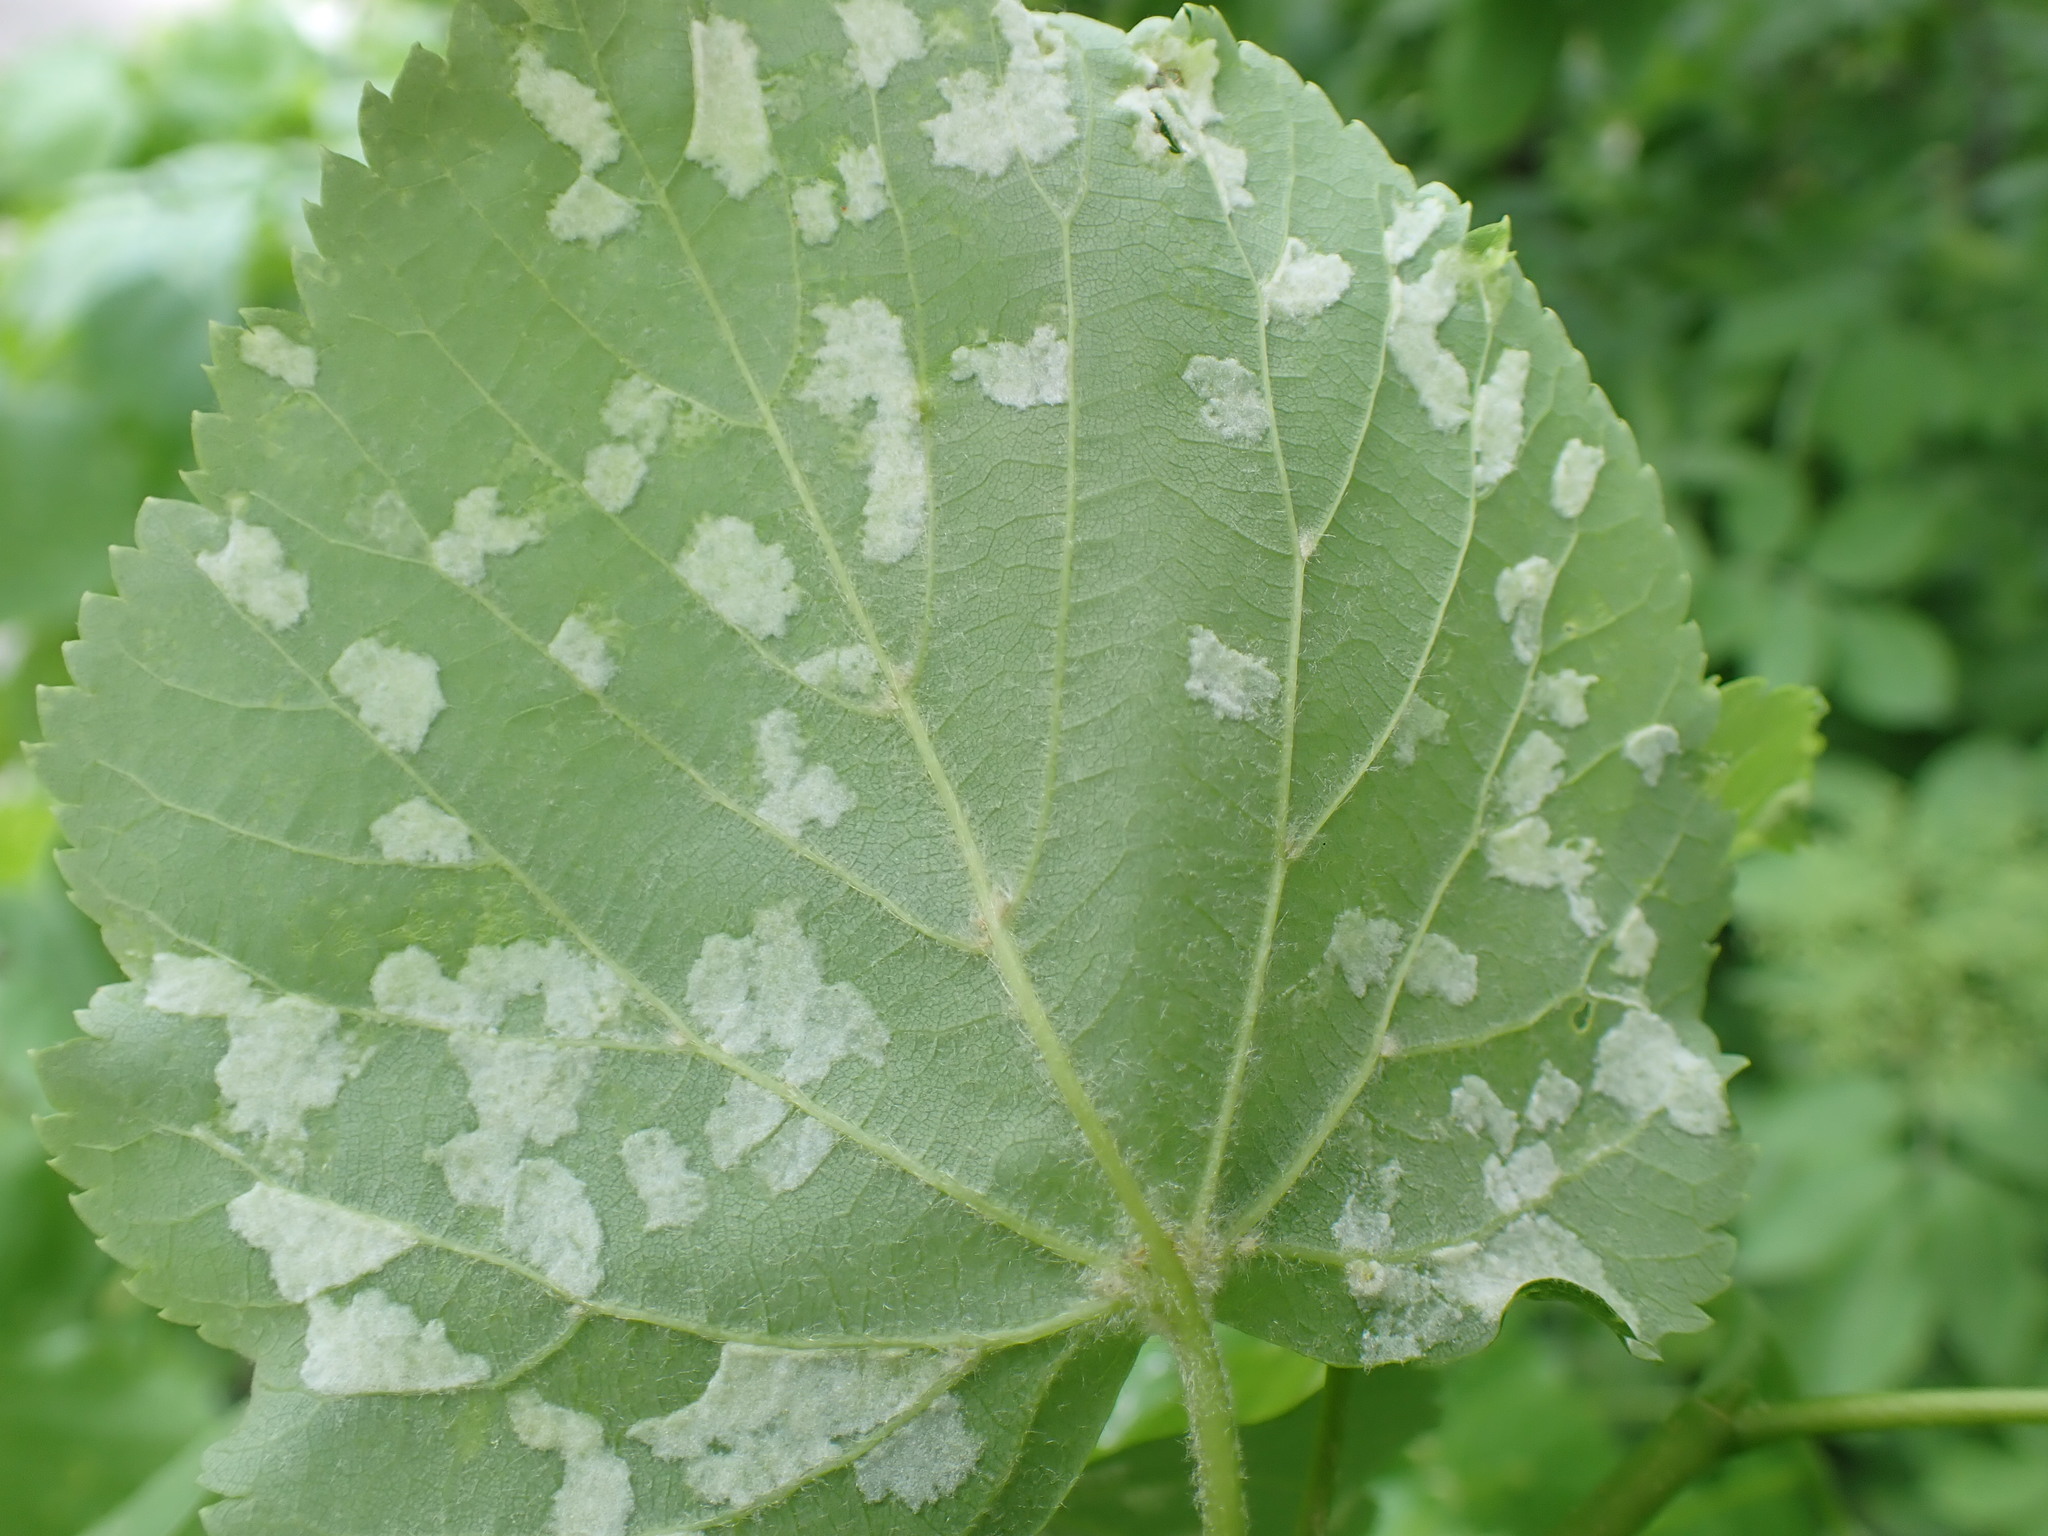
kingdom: Animalia
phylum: Arthropoda
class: Arachnida
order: Trombidiformes
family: Eriophyidae
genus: Eriophyes
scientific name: Eriophyes exilis
